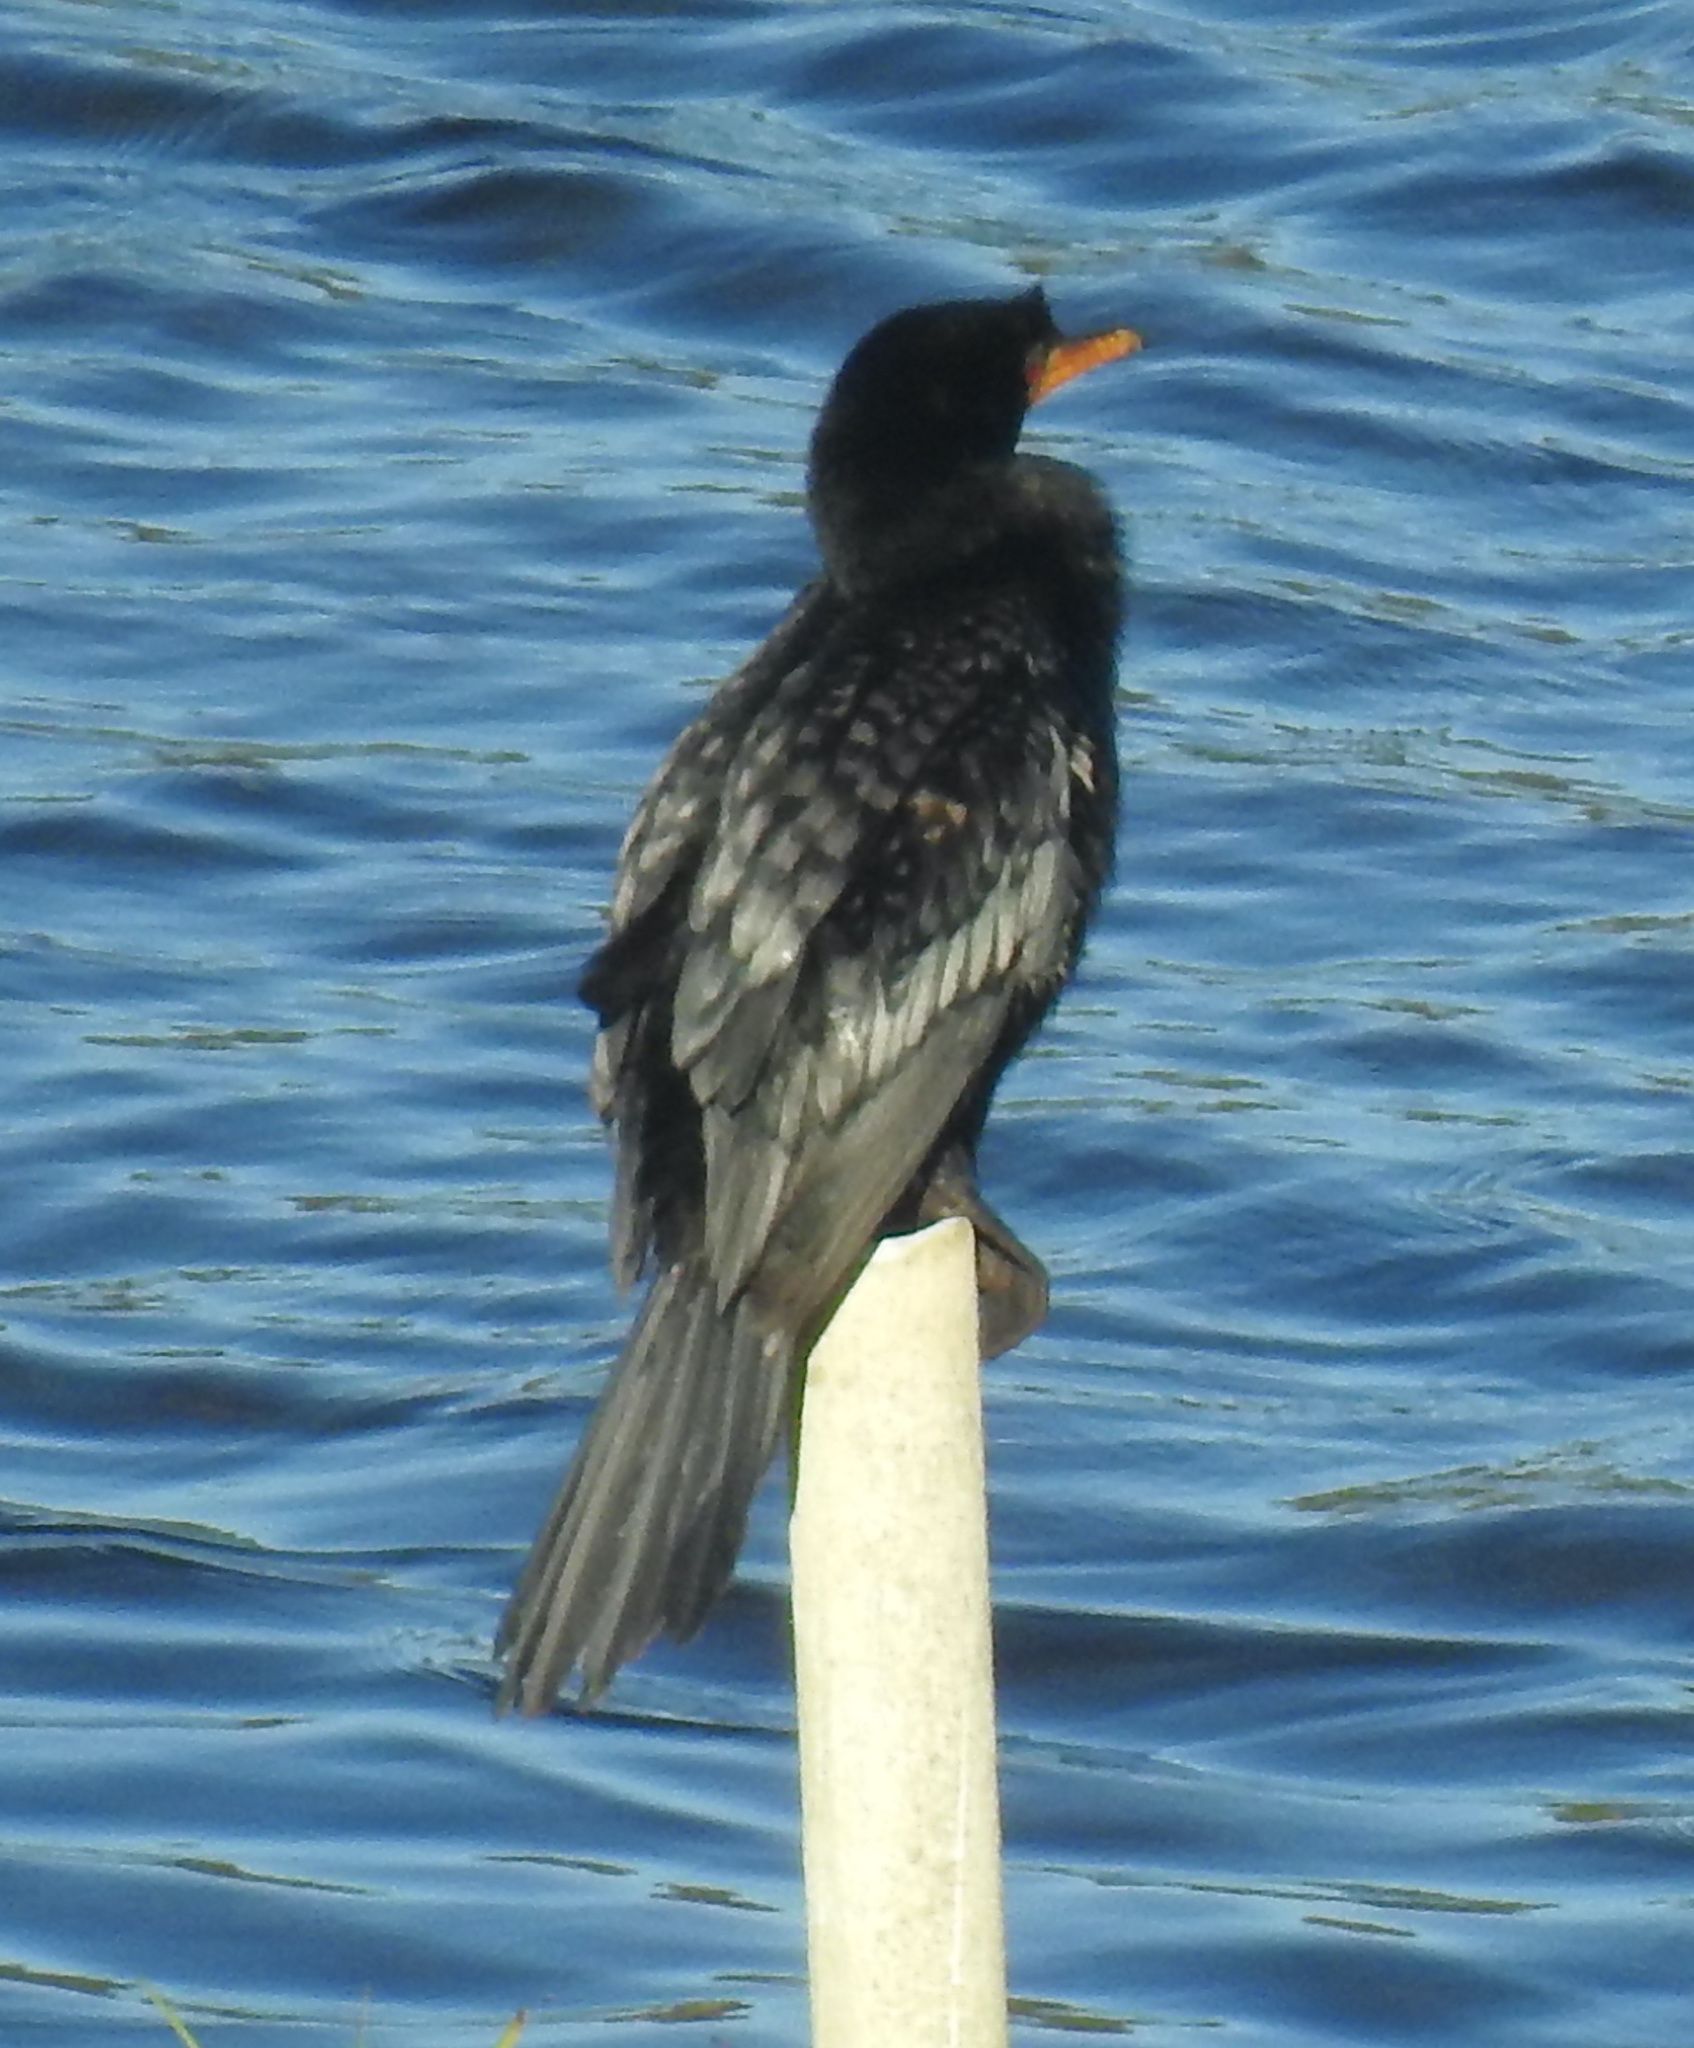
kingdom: Animalia
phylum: Chordata
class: Aves
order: Suliformes
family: Phalacrocoracidae
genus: Microcarbo
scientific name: Microcarbo africanus
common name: Long-tailed cormorant
